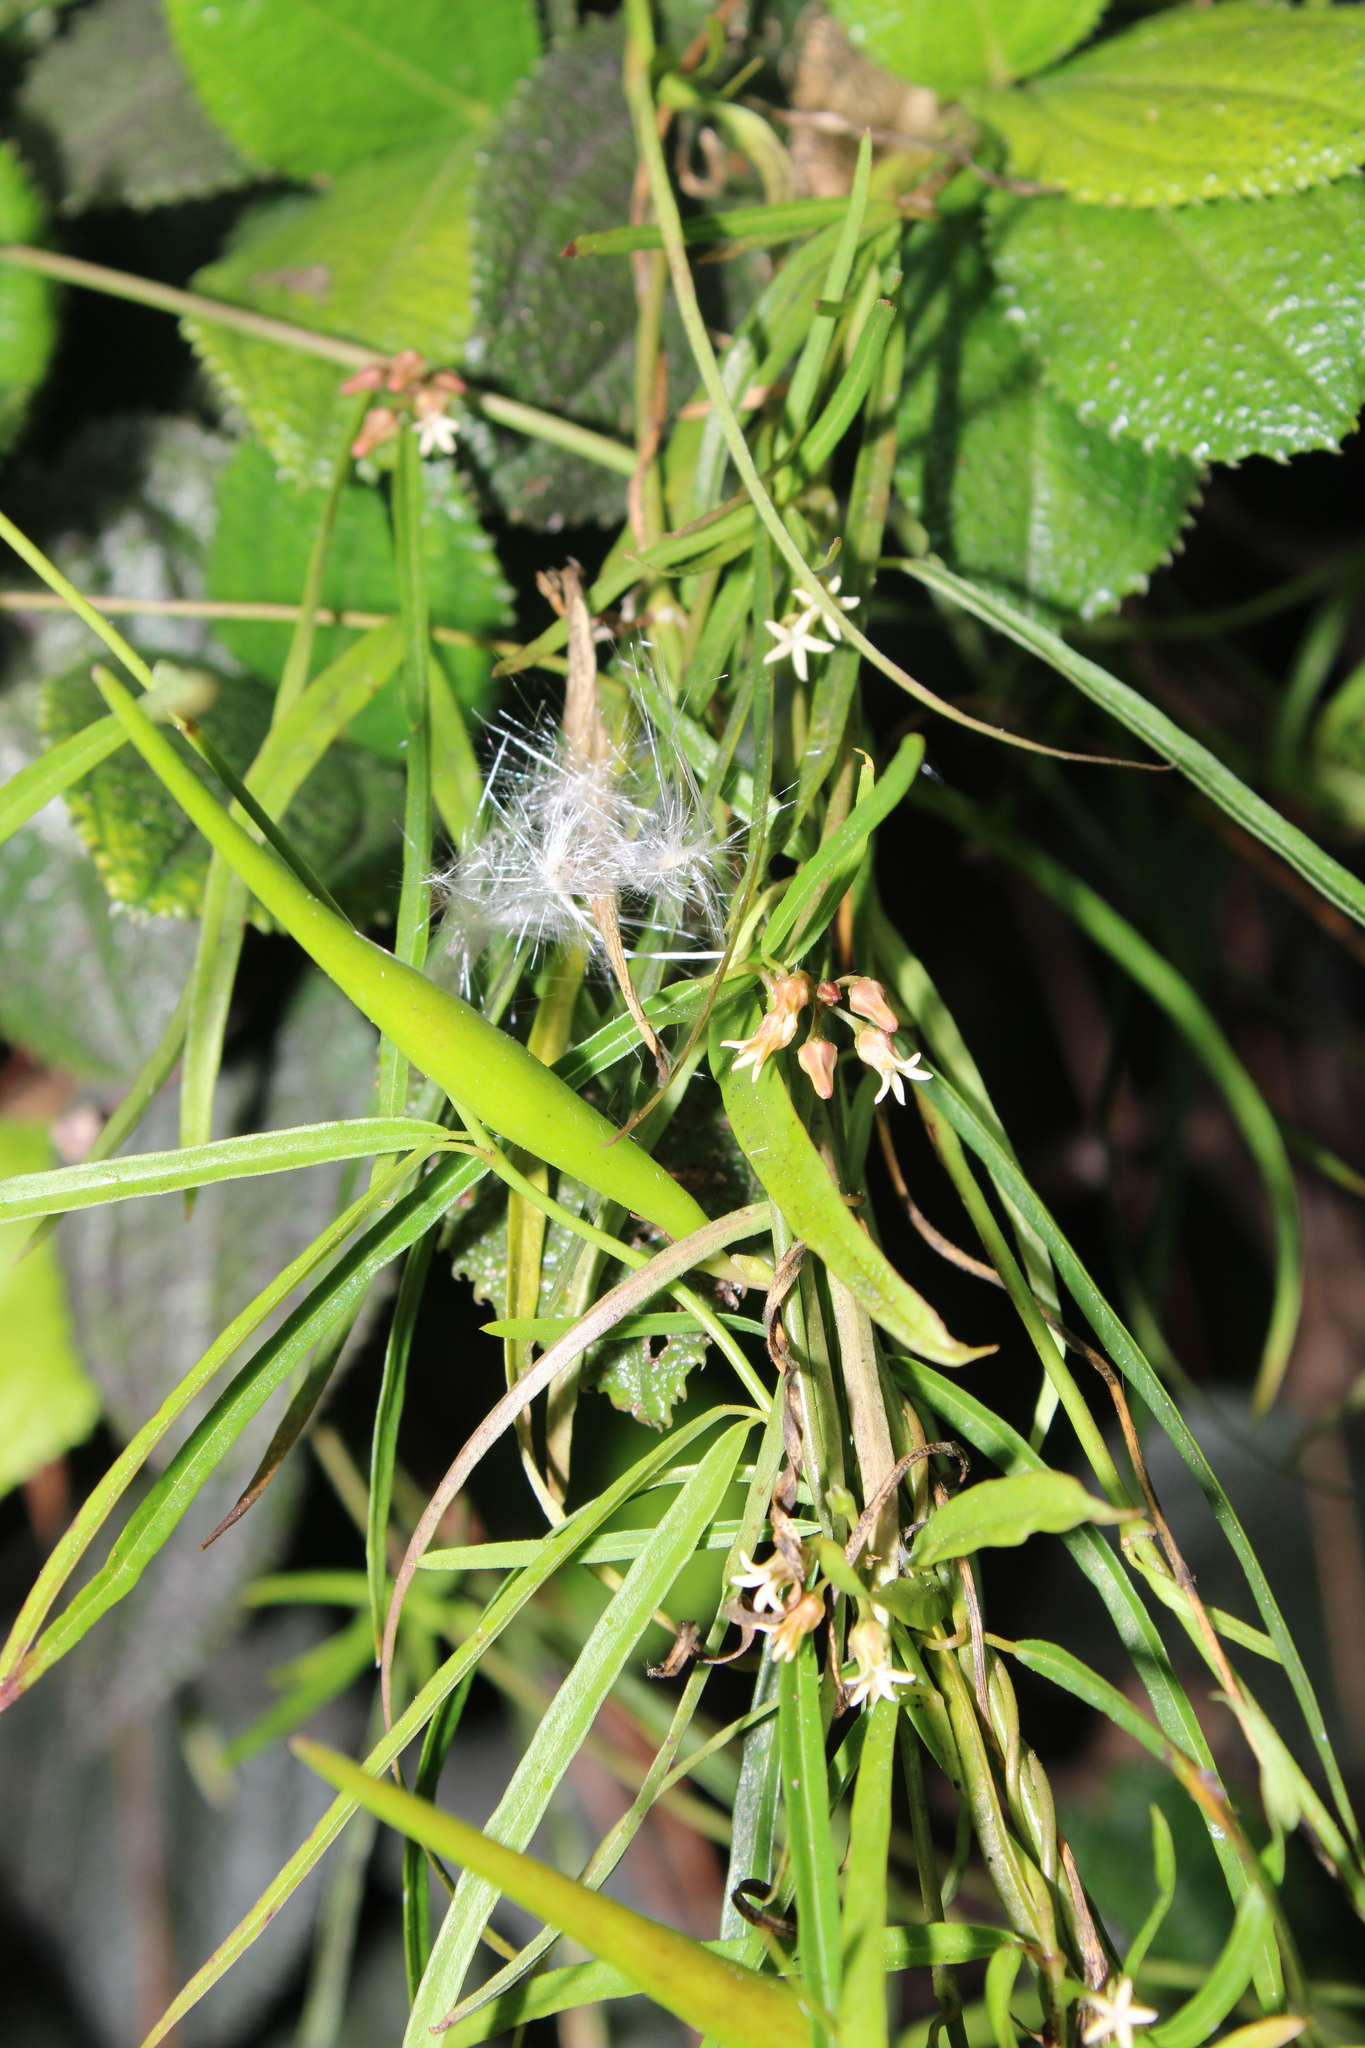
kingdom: Plantae
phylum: Tracheophyta
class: Magnoliopsida
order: Gentianales
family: Apocynaceae
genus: Metastelma
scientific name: Metastelma lineare
